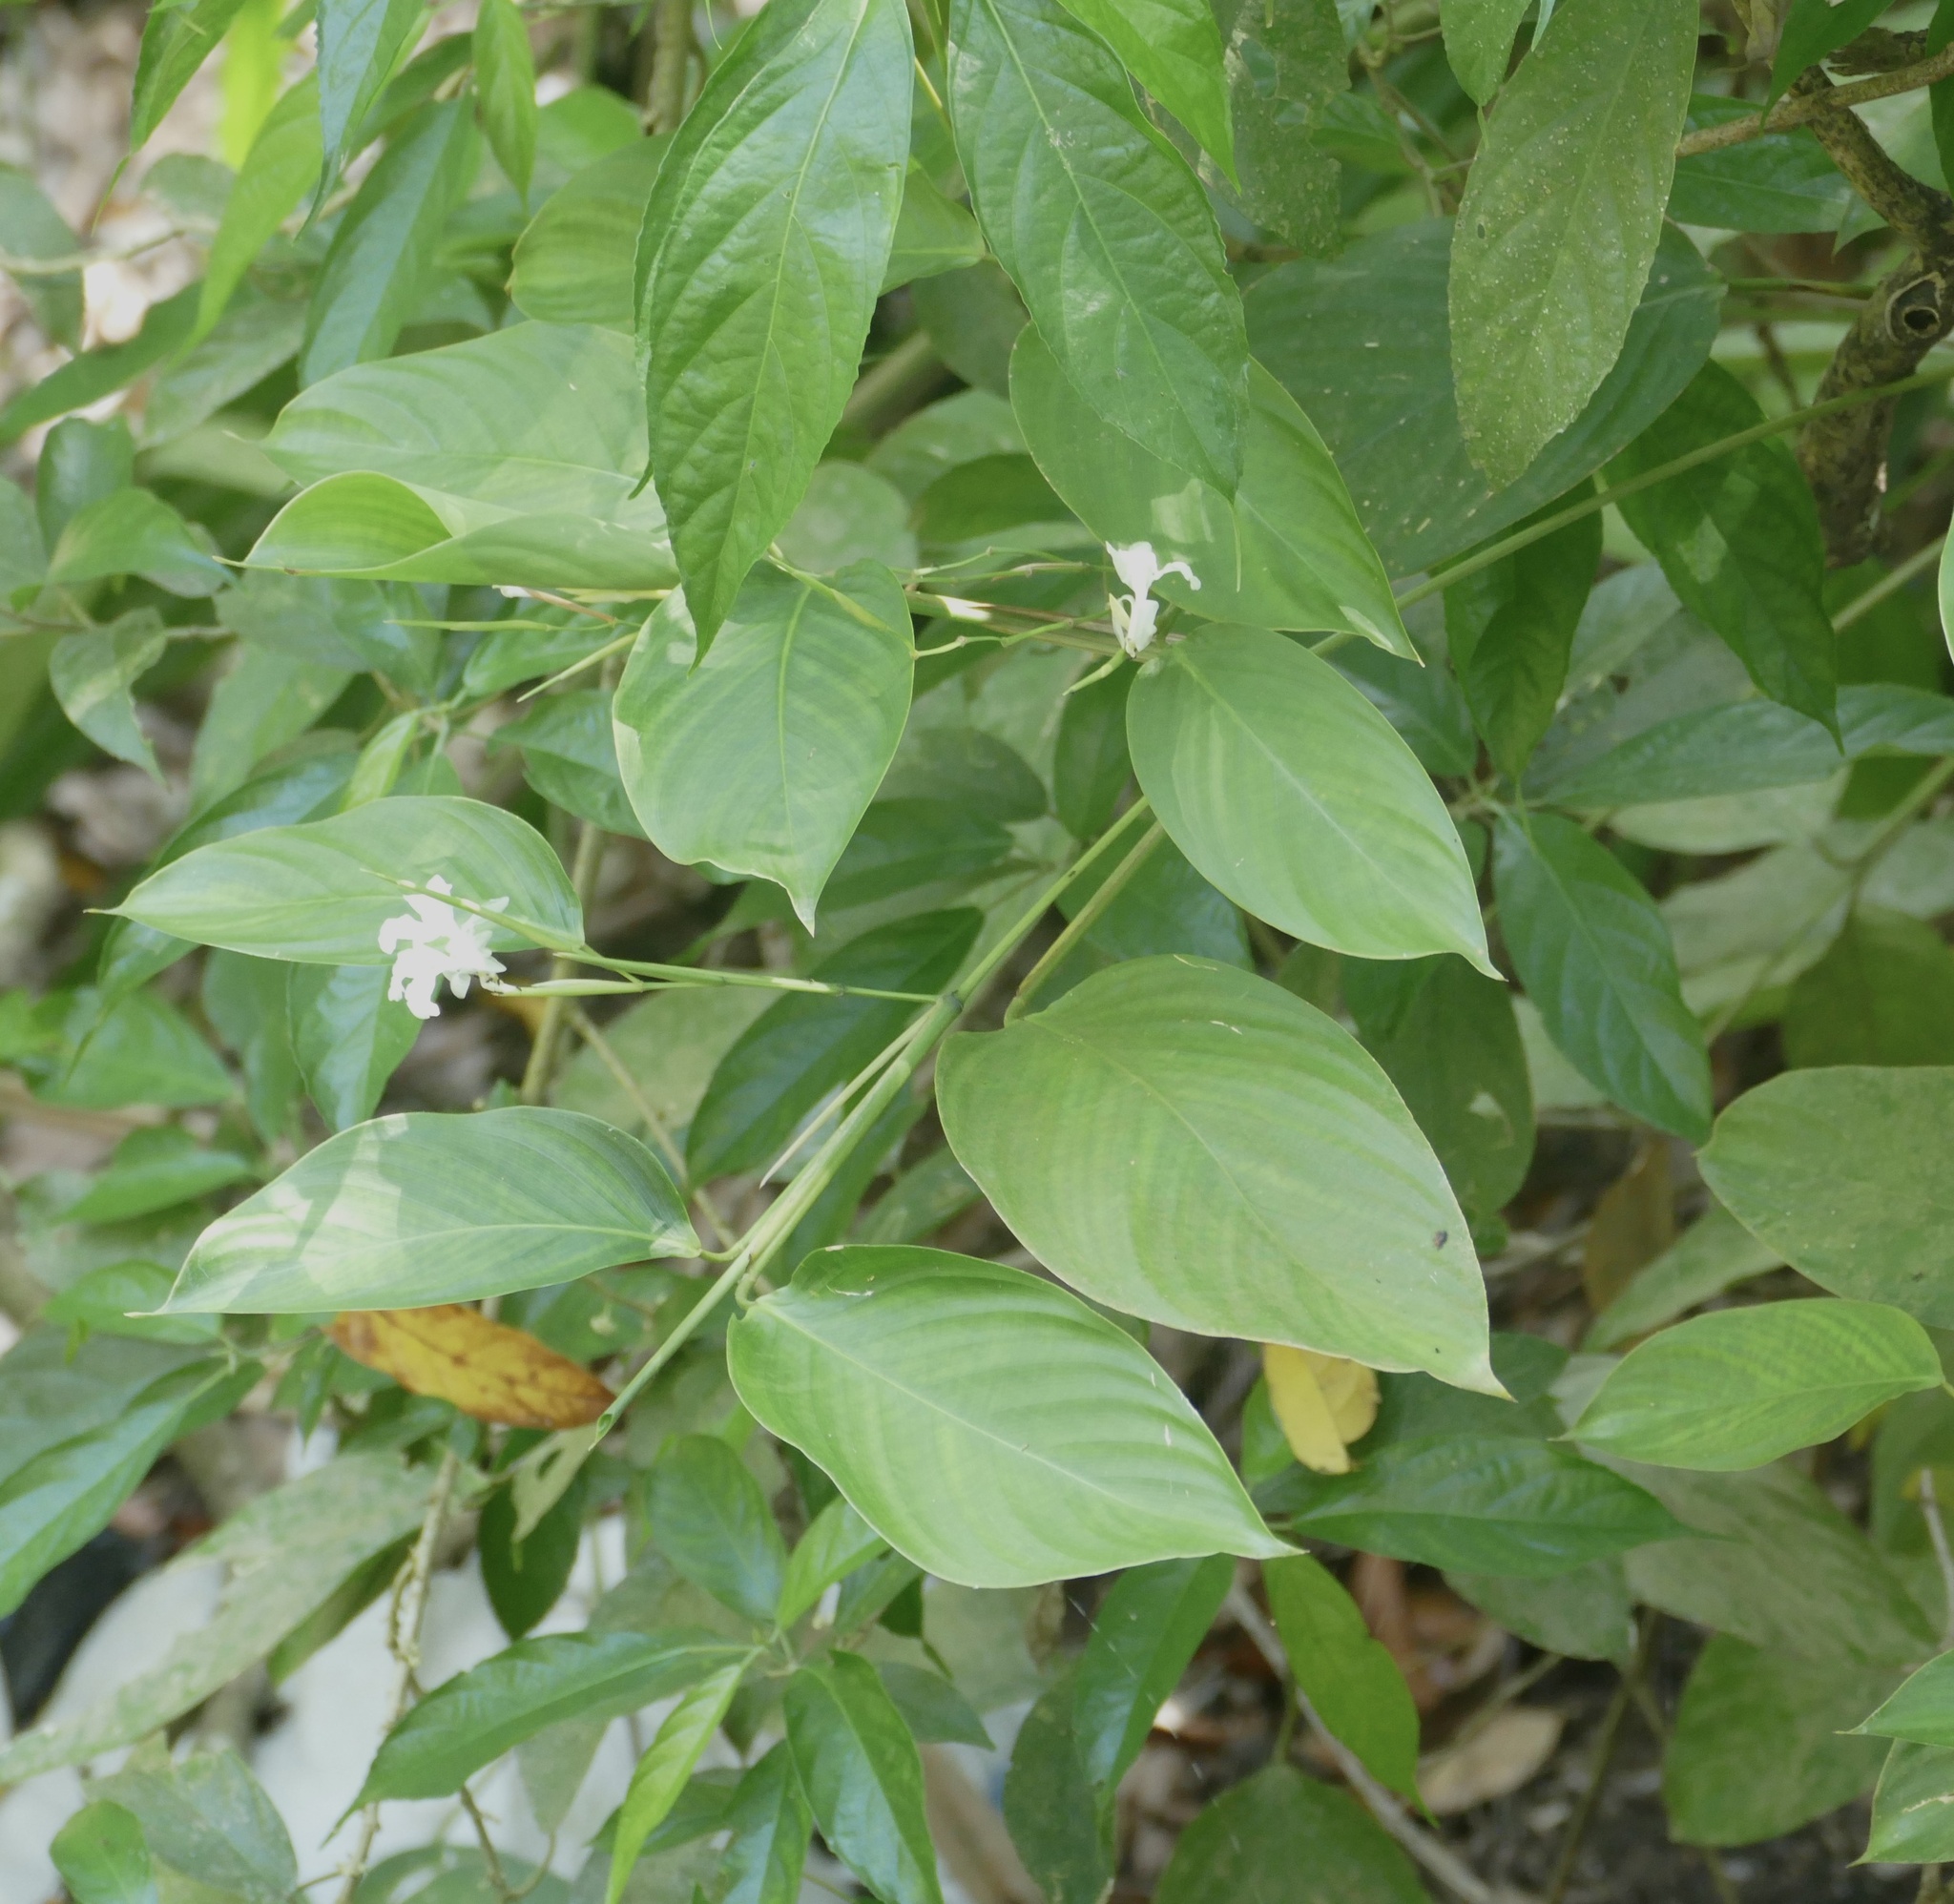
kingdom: Plantae
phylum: Tracheophyta
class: Liliopsida
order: Zingiberales
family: Marantaceae
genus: Donax
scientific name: Donax canniformis
